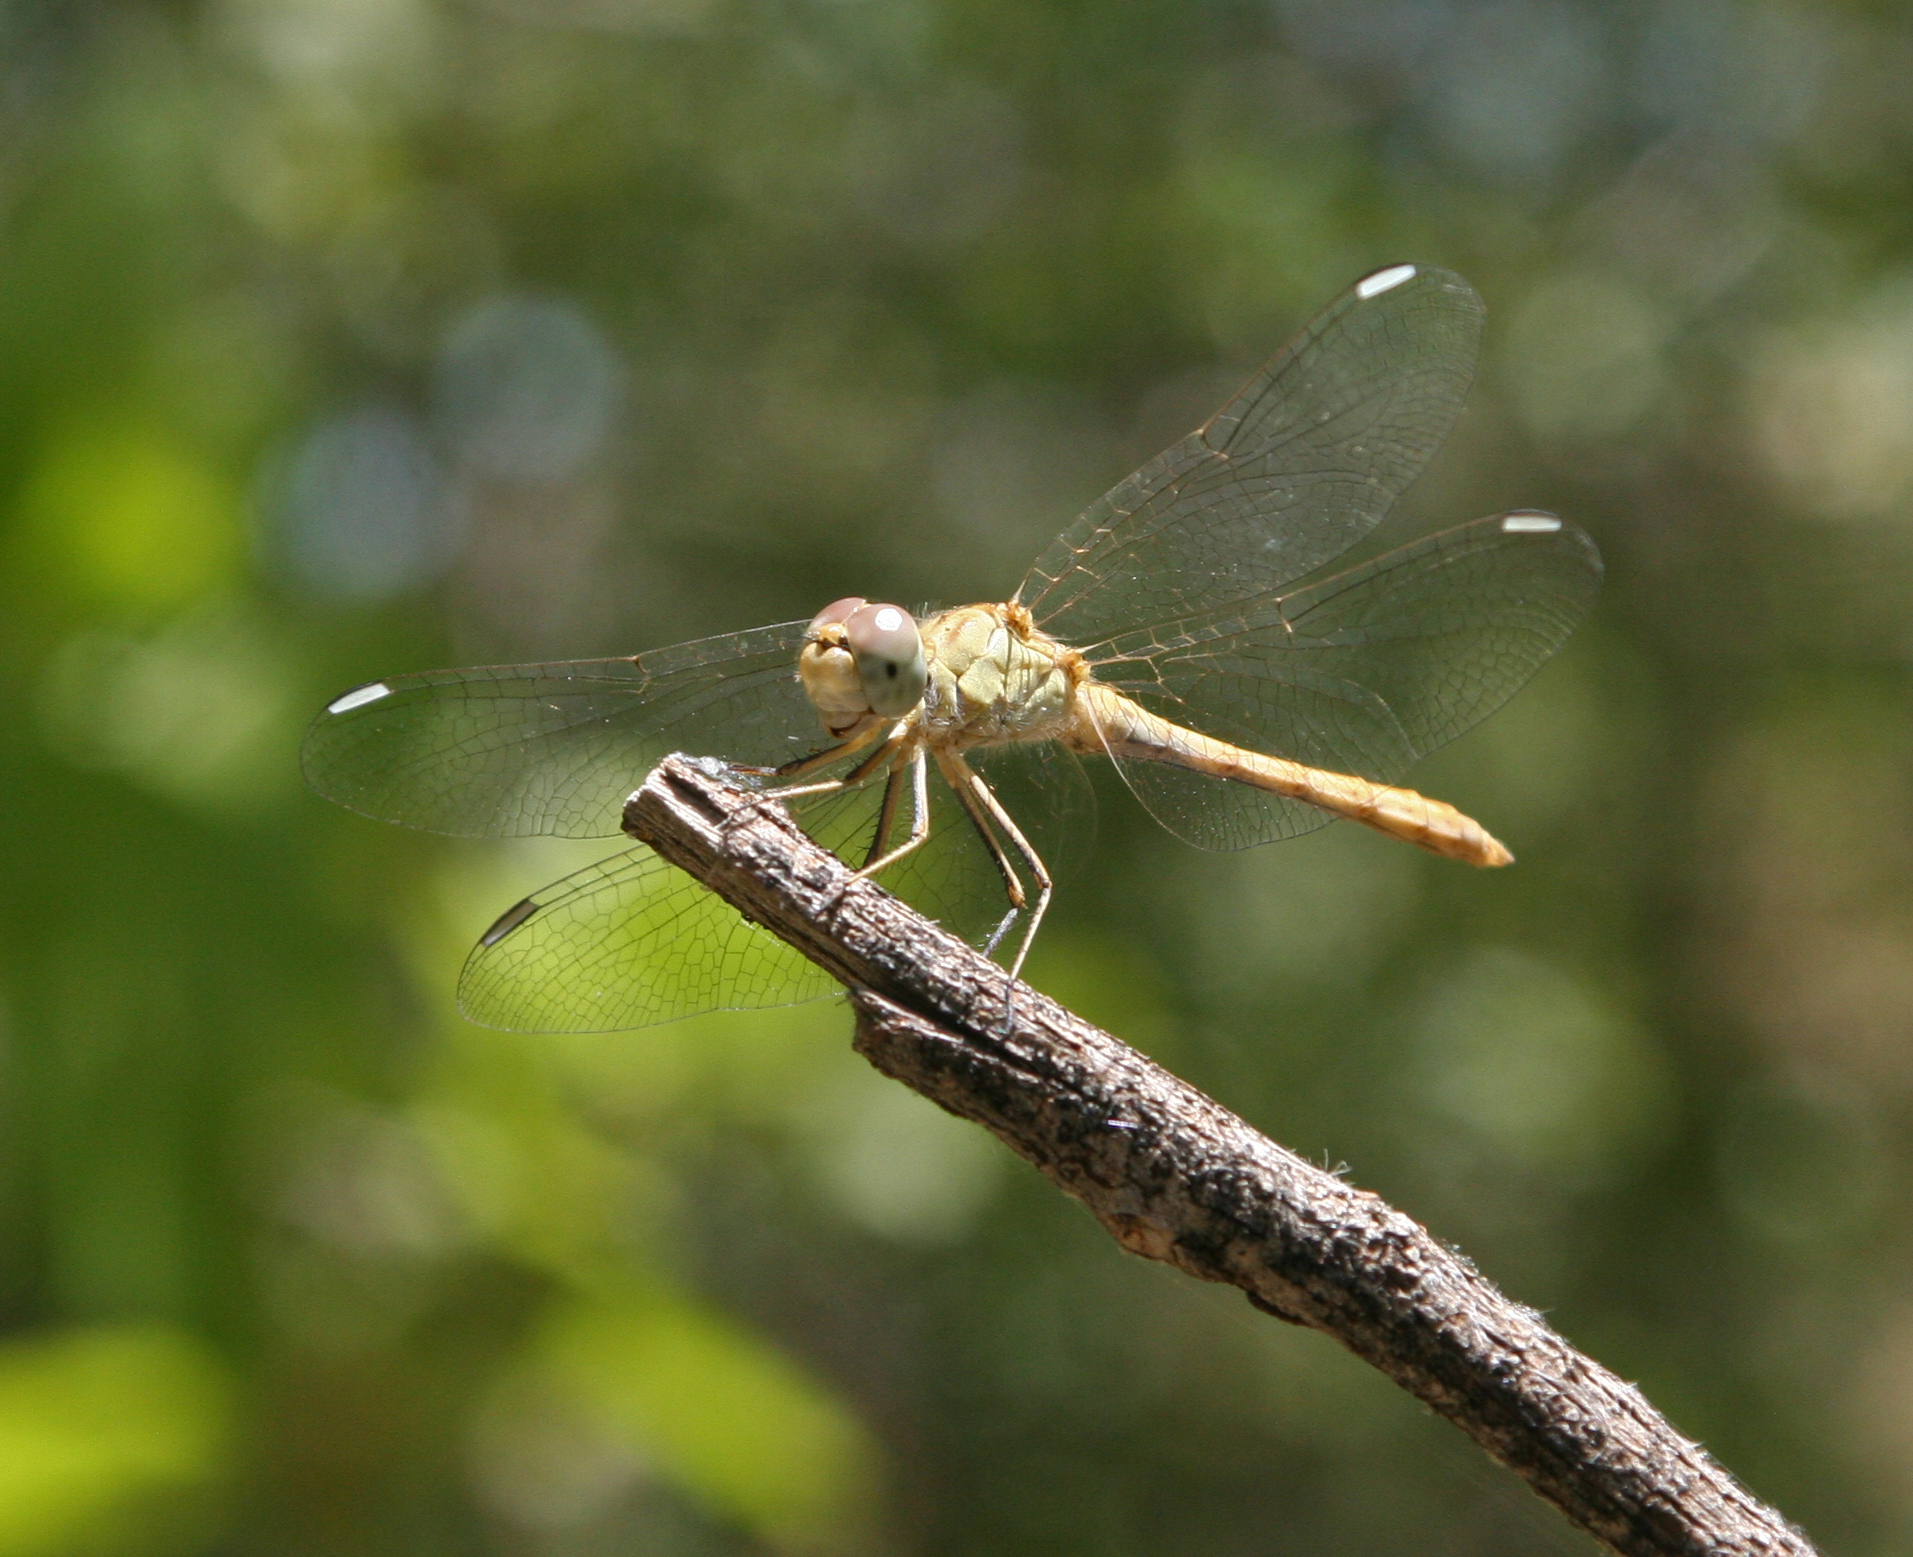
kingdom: Animalia
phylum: Arthropoda
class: Insecta
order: Odonata
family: Libellulidae
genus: Sympetrum
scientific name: Sympetrum arenicolor
